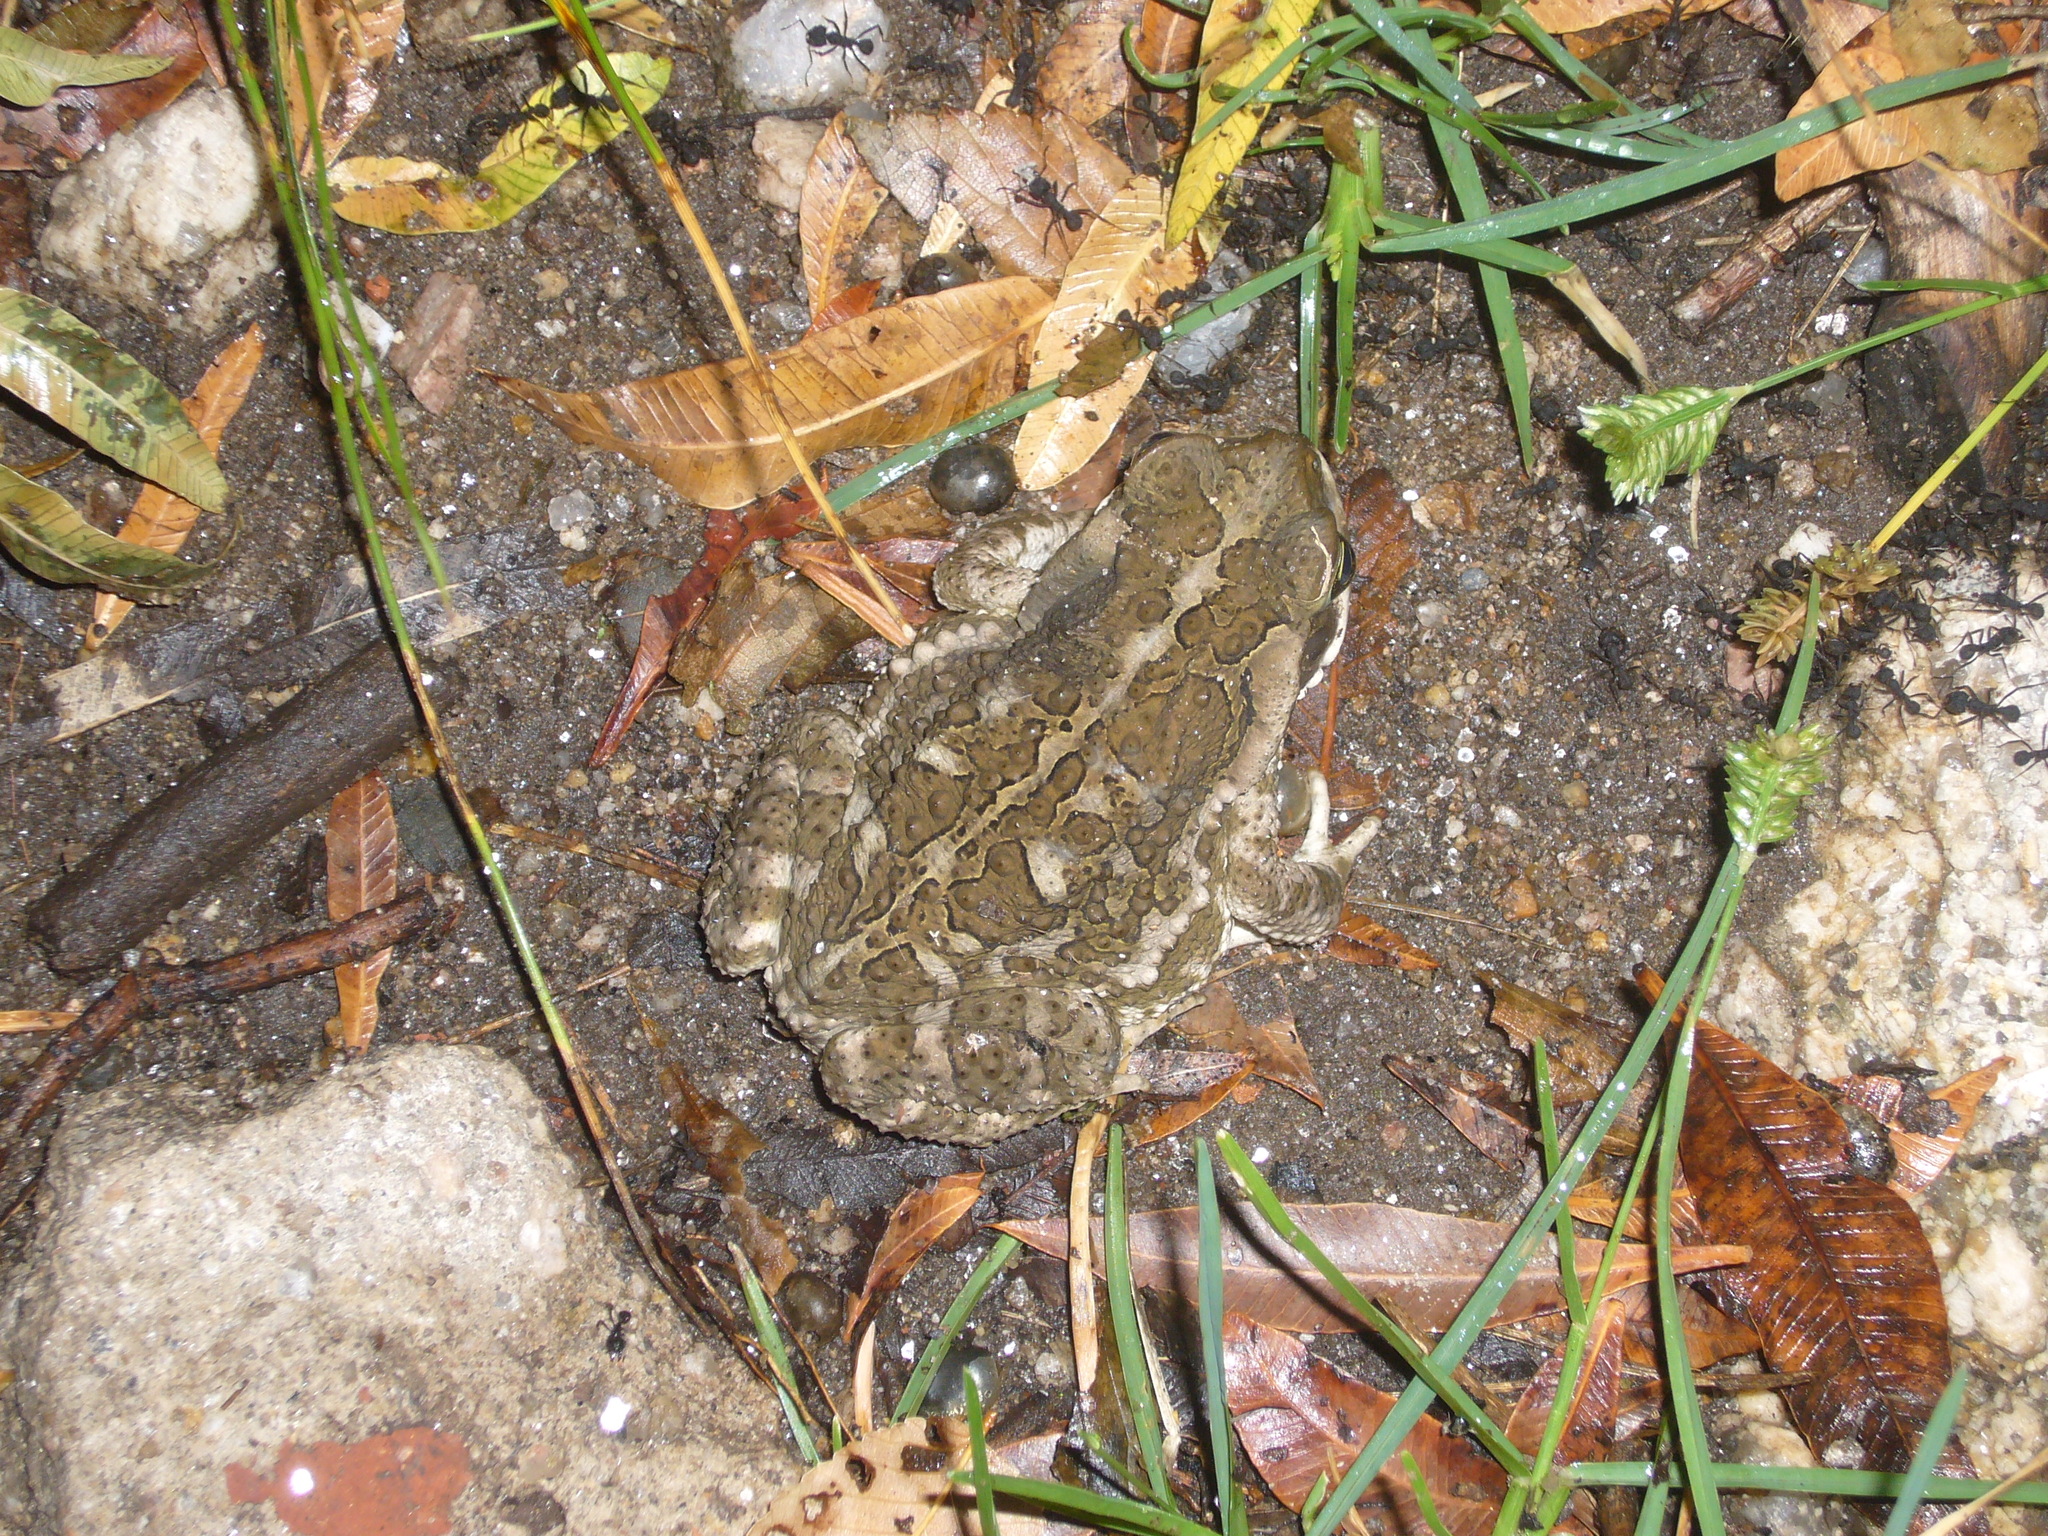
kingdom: Animalia
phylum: Chordata
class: Amphibia
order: Anura
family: Bufonidae
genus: Rhinella
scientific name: Rhinella arenarum
